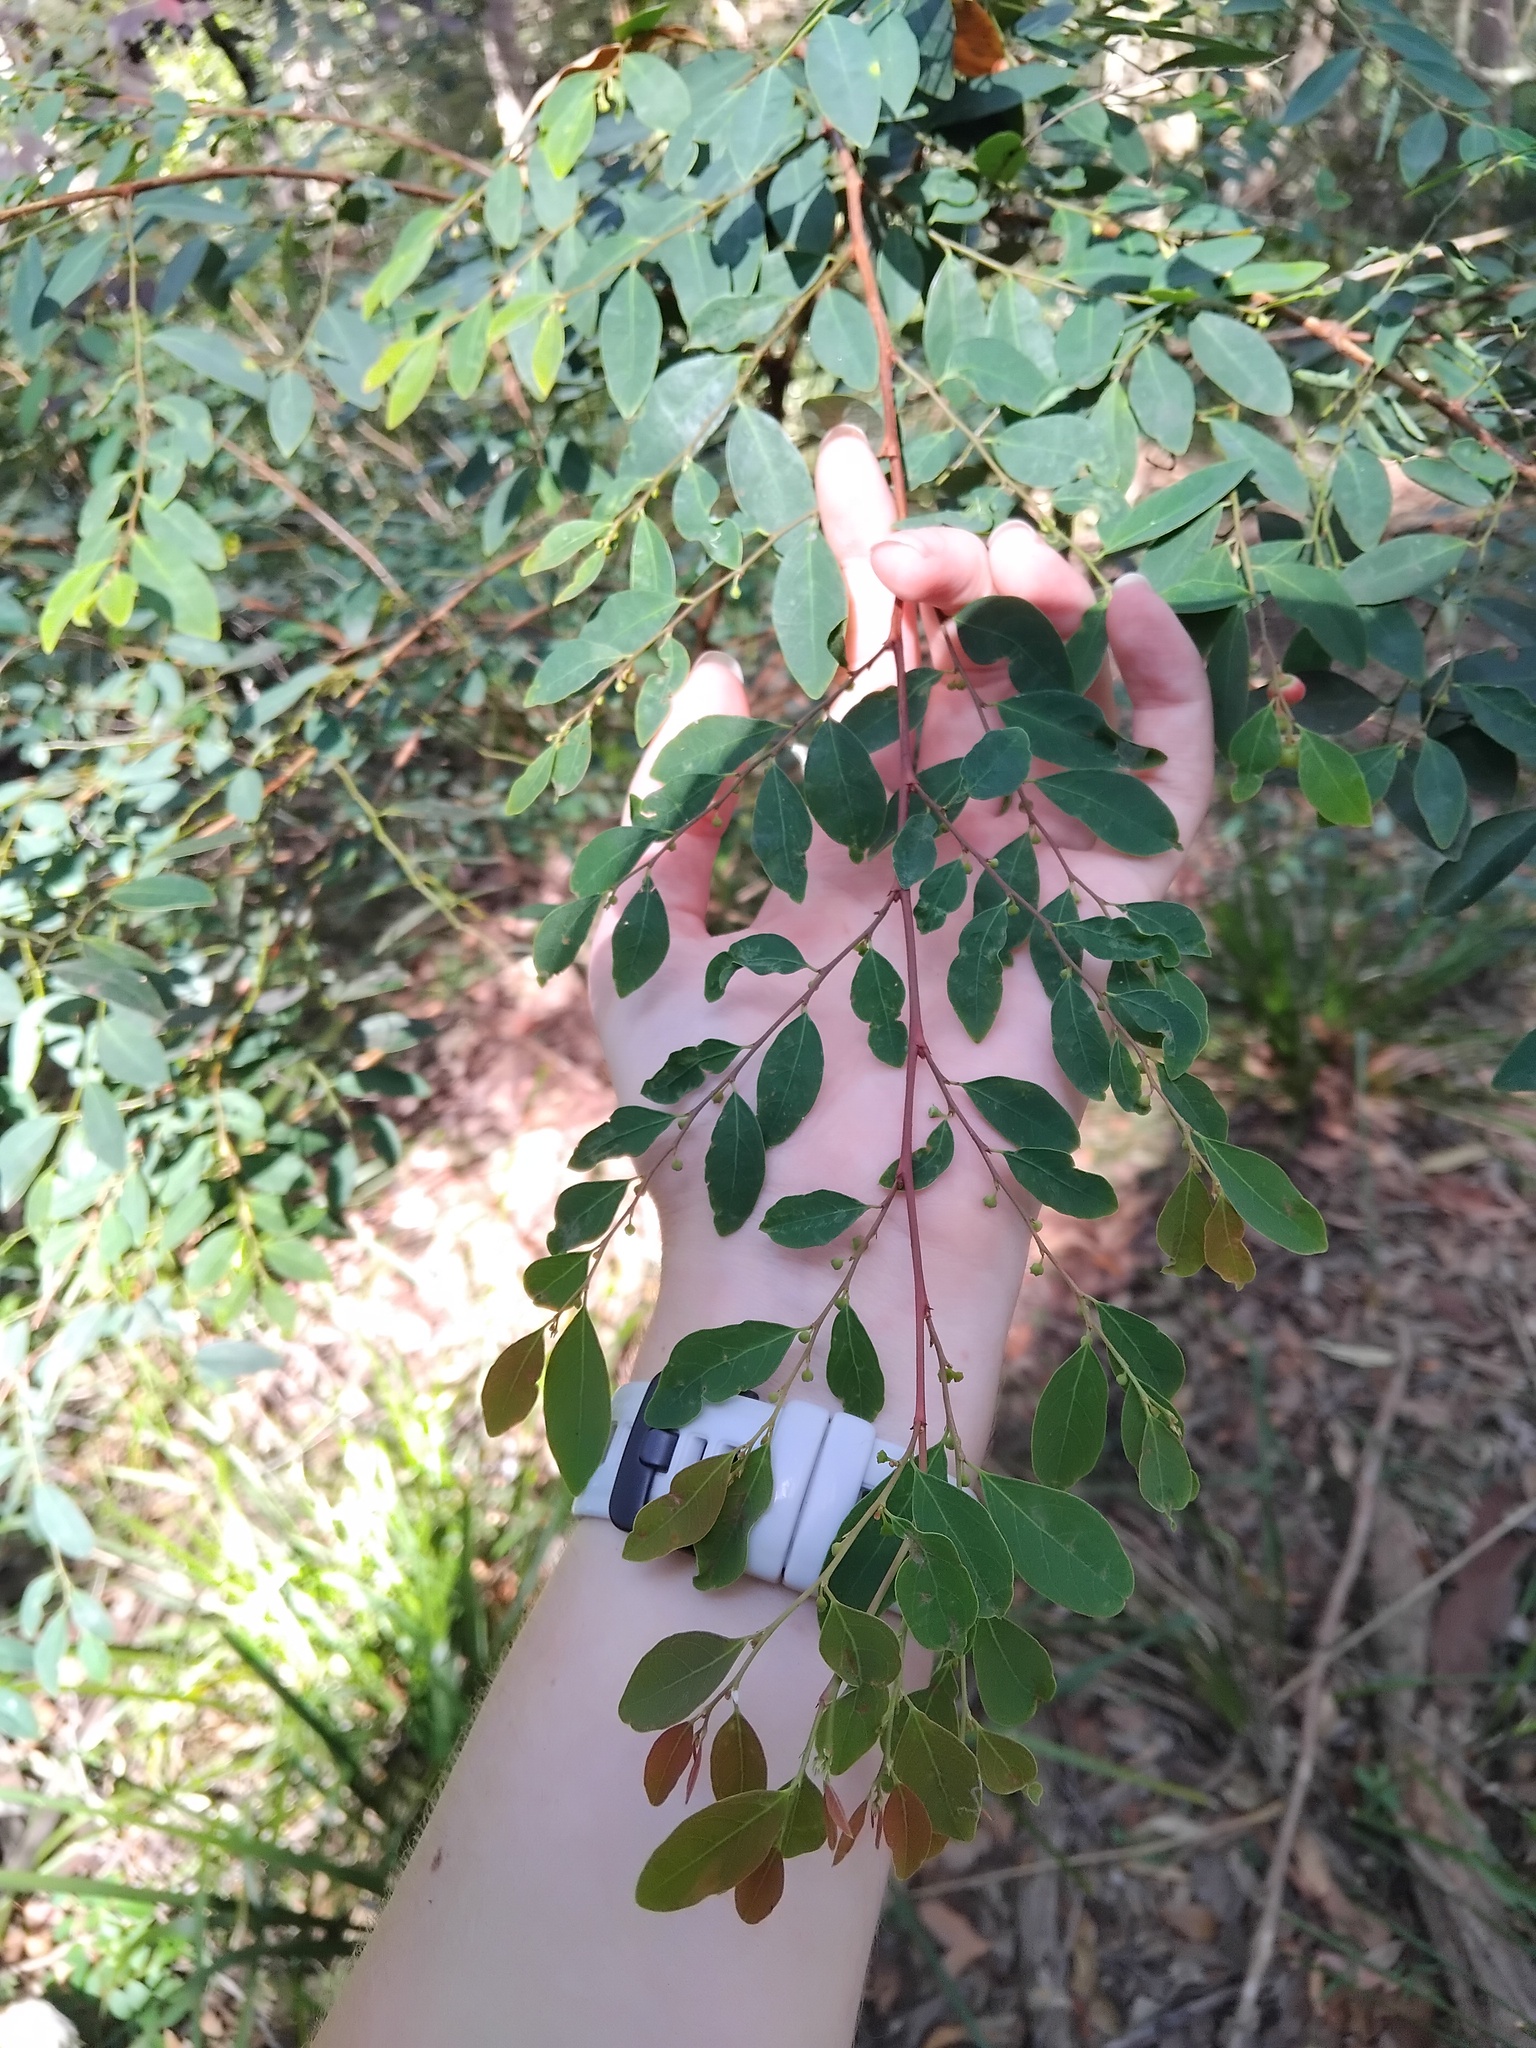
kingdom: Plantae
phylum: Tracheophyta
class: Magnoliopsida
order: Malpighiales
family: Phyllanthaceae
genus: Breynia
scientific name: Breynia oblongifolia
